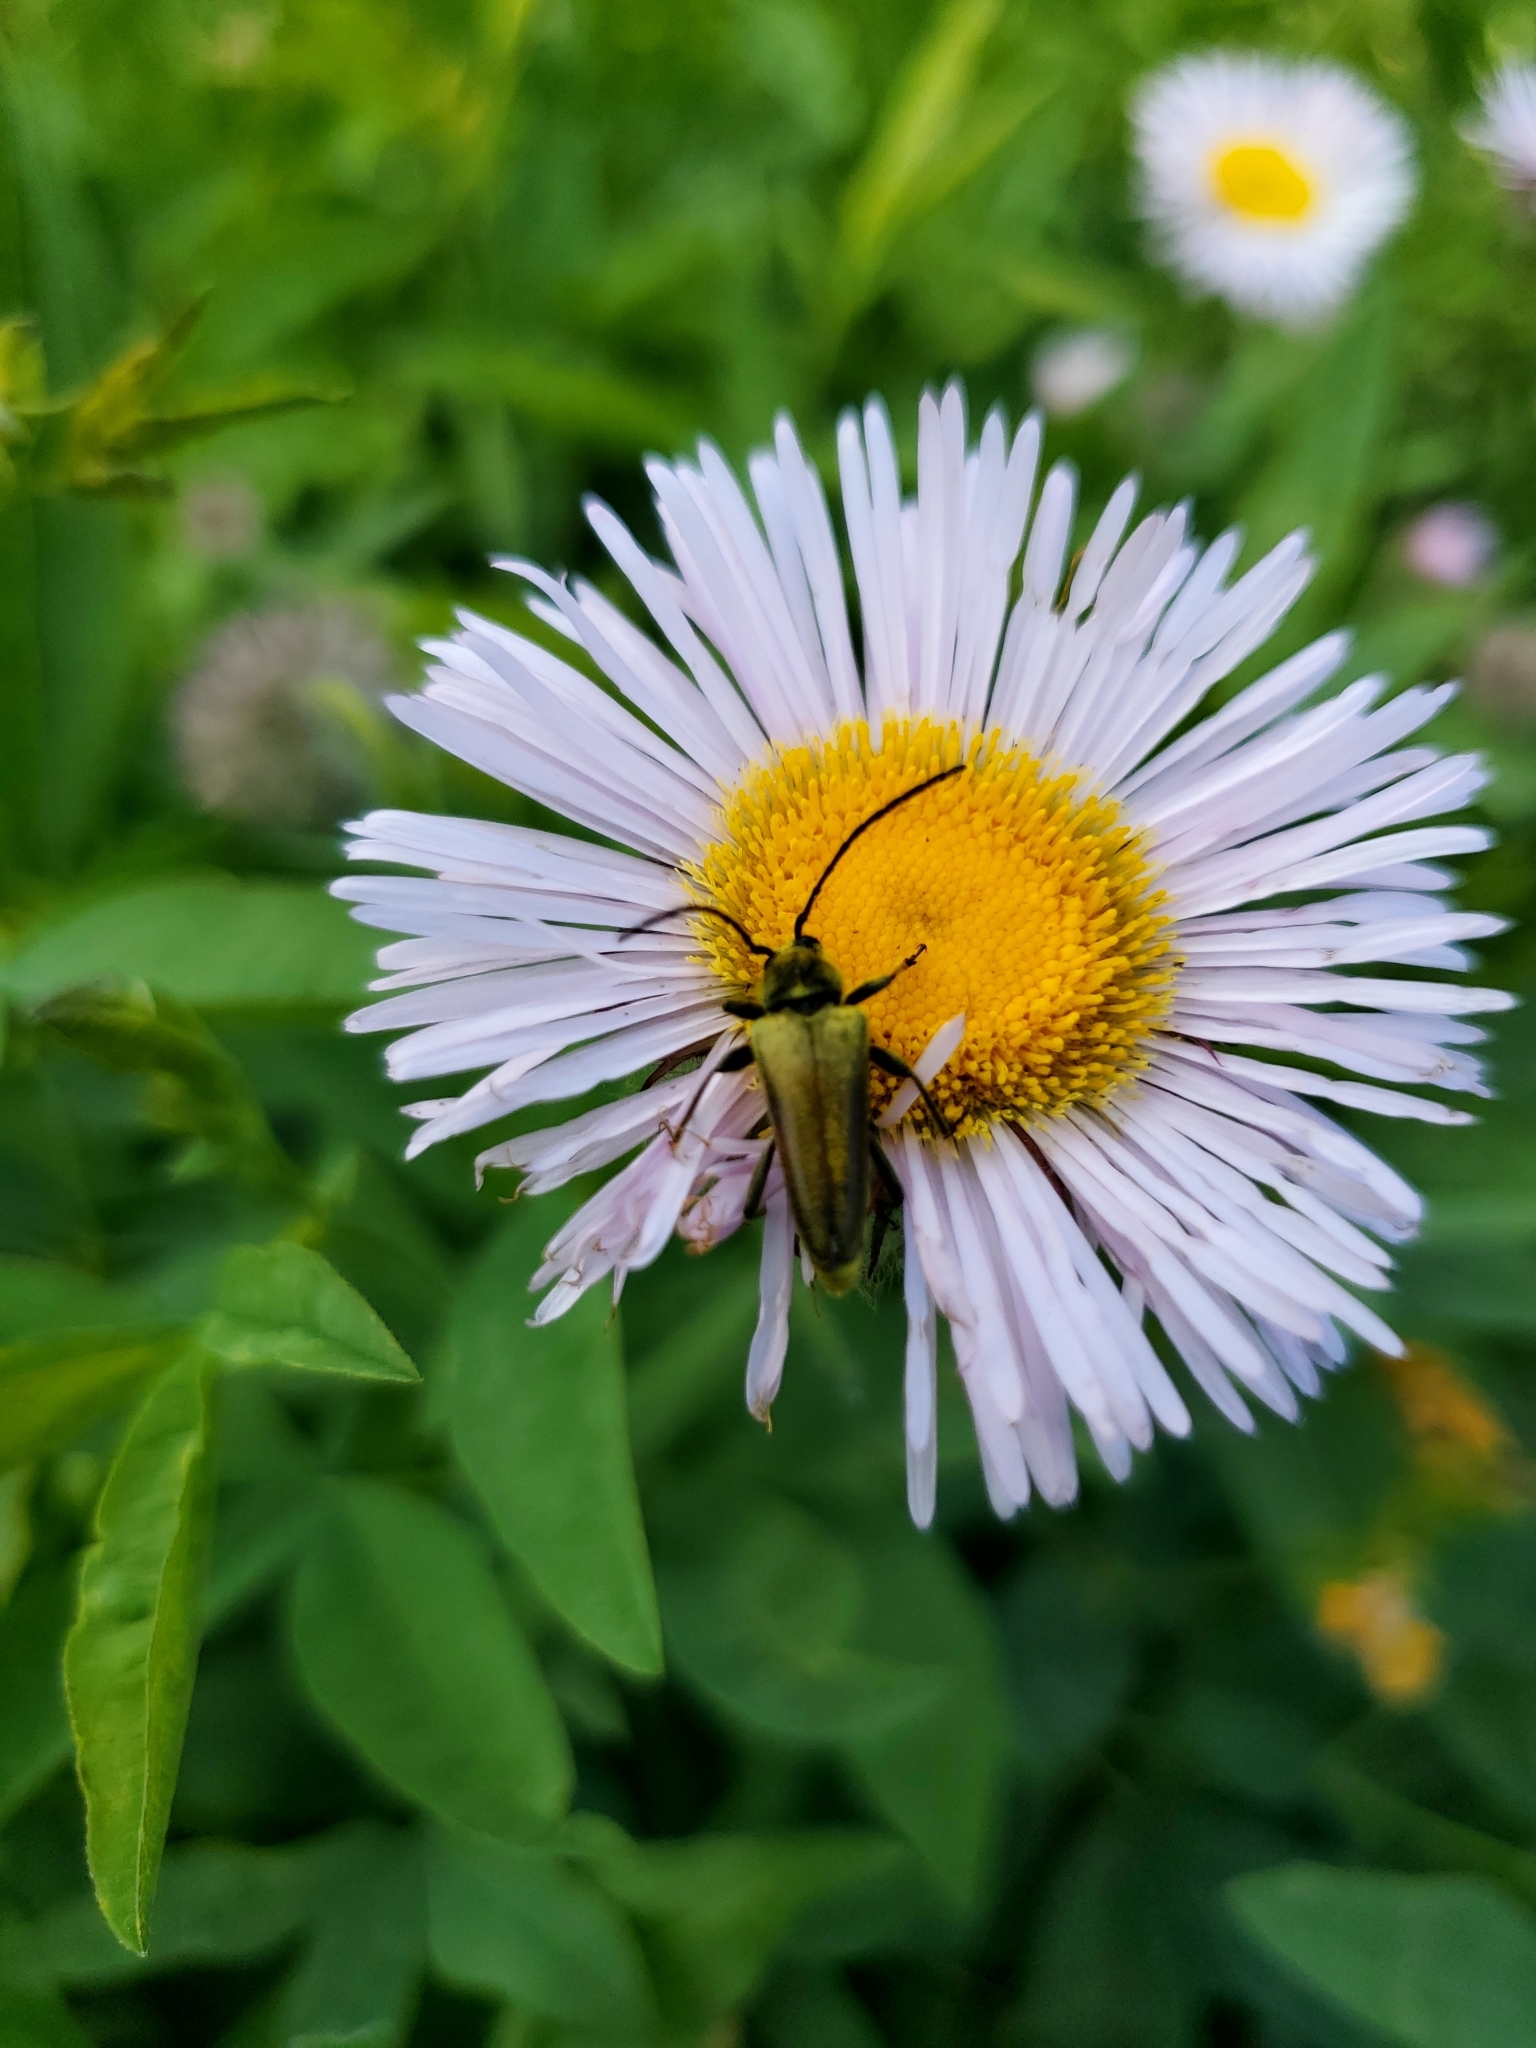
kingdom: Animalia
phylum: Arthropoda
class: Insecta
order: Coleoptera
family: Cerambycidae
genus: Cosmosalia
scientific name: Cosmosalia chrysocoma
